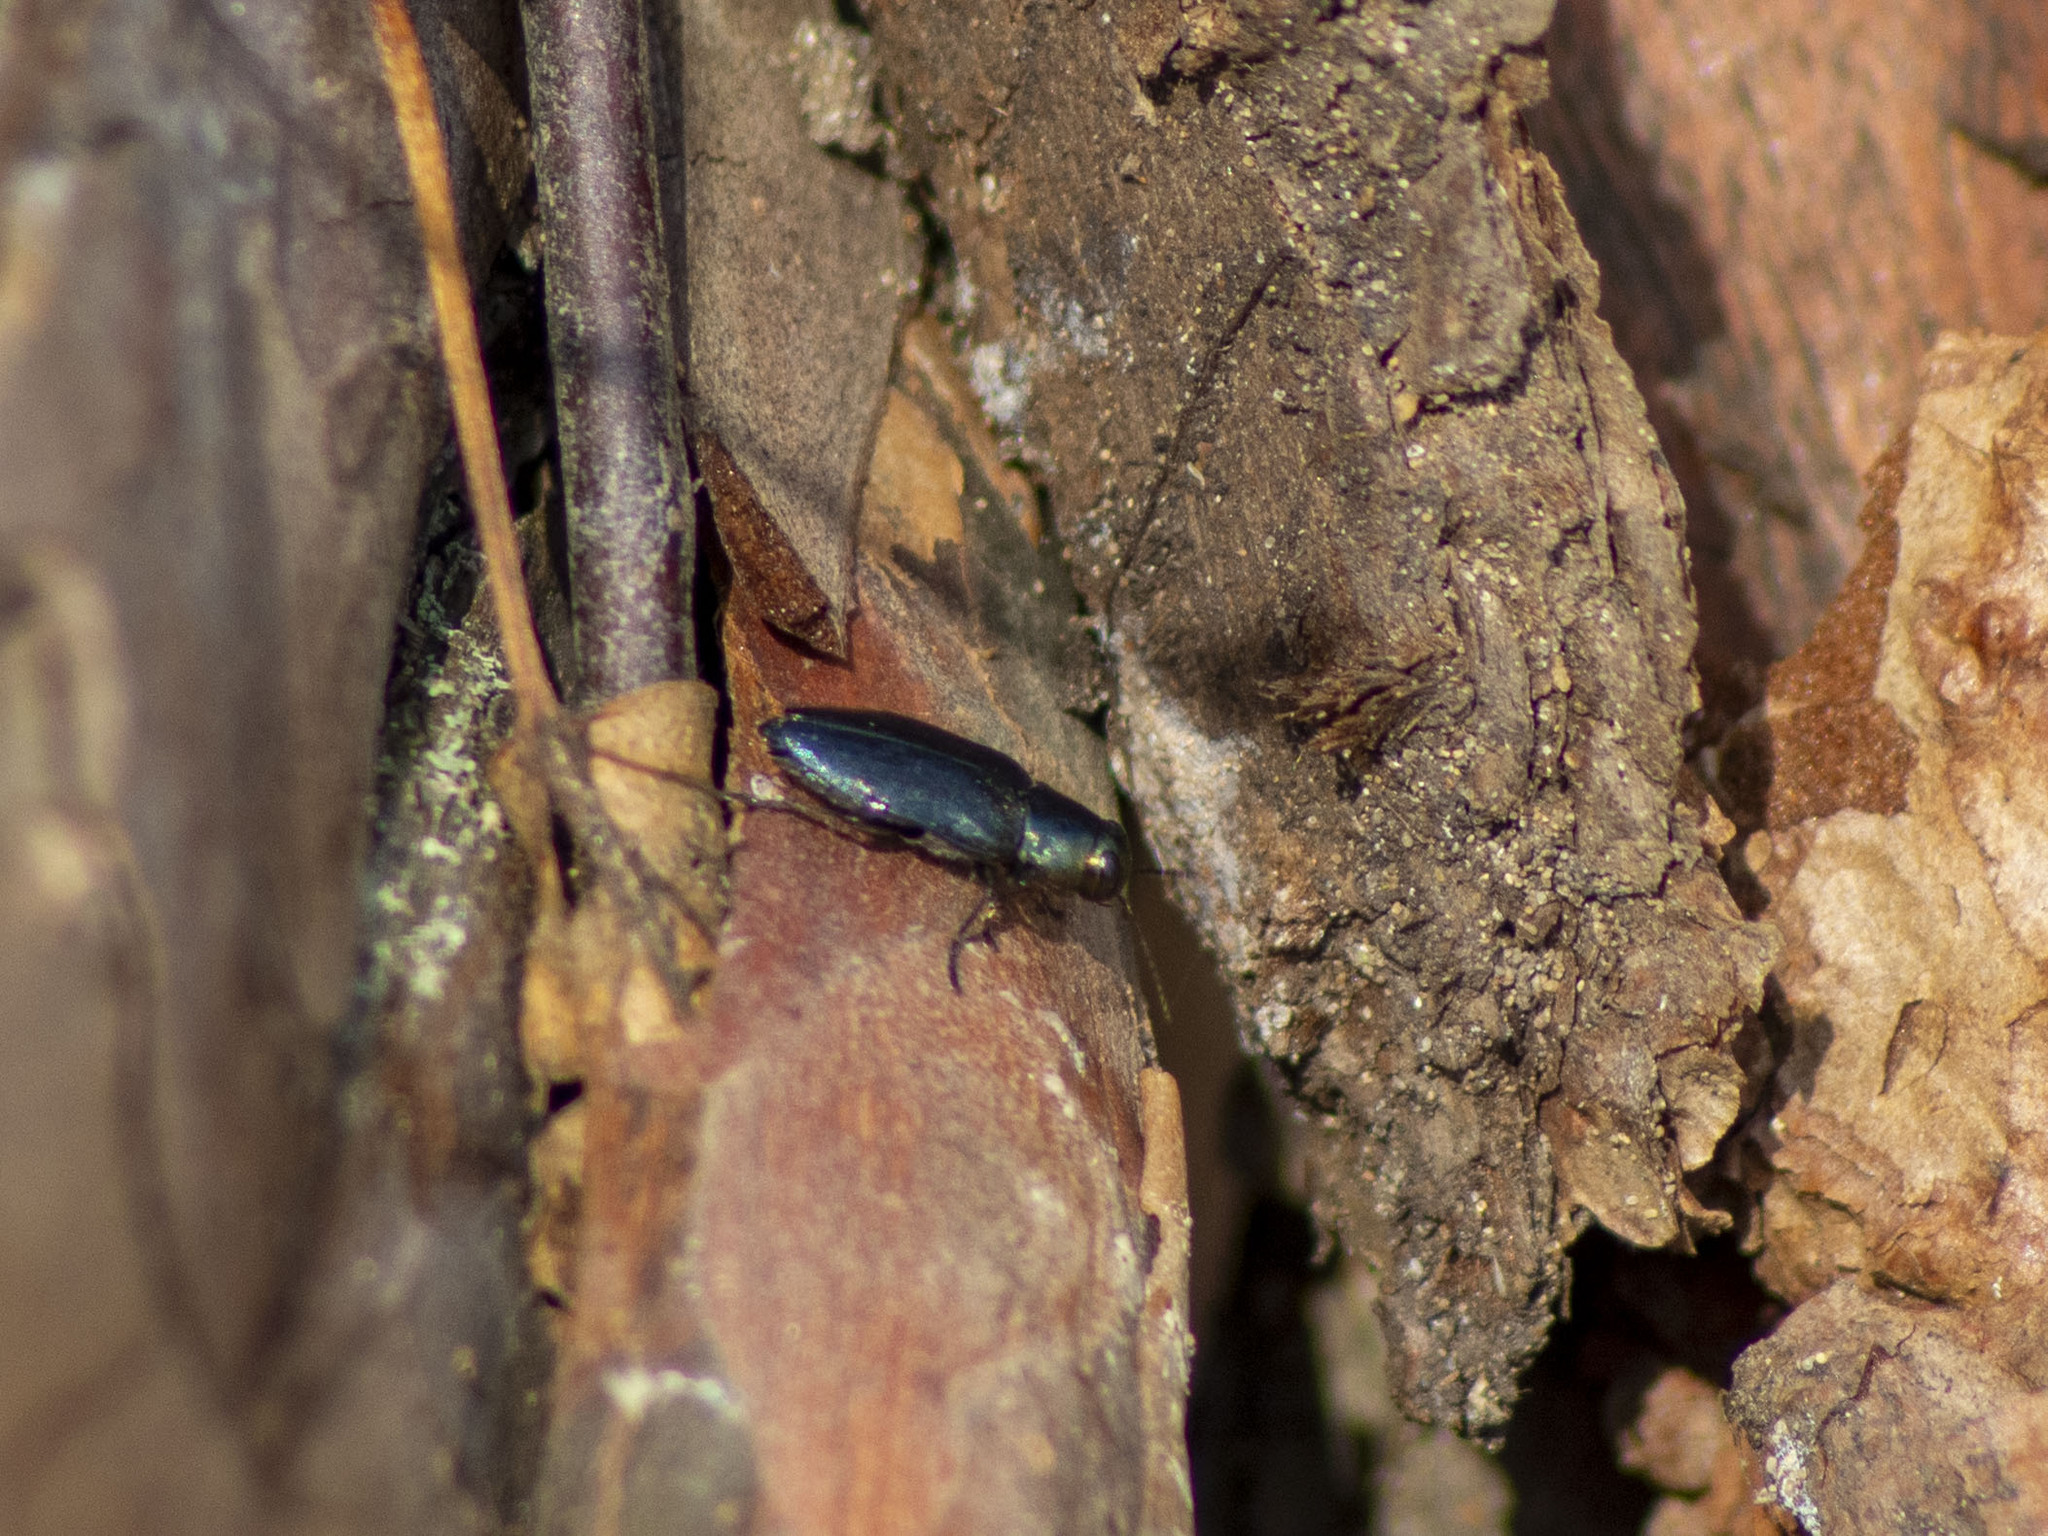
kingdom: Animalia
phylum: Arthropoda
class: Insecta
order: Coleoptera
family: Buprestidae
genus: Phaenops
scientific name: Phaenops cyanea
